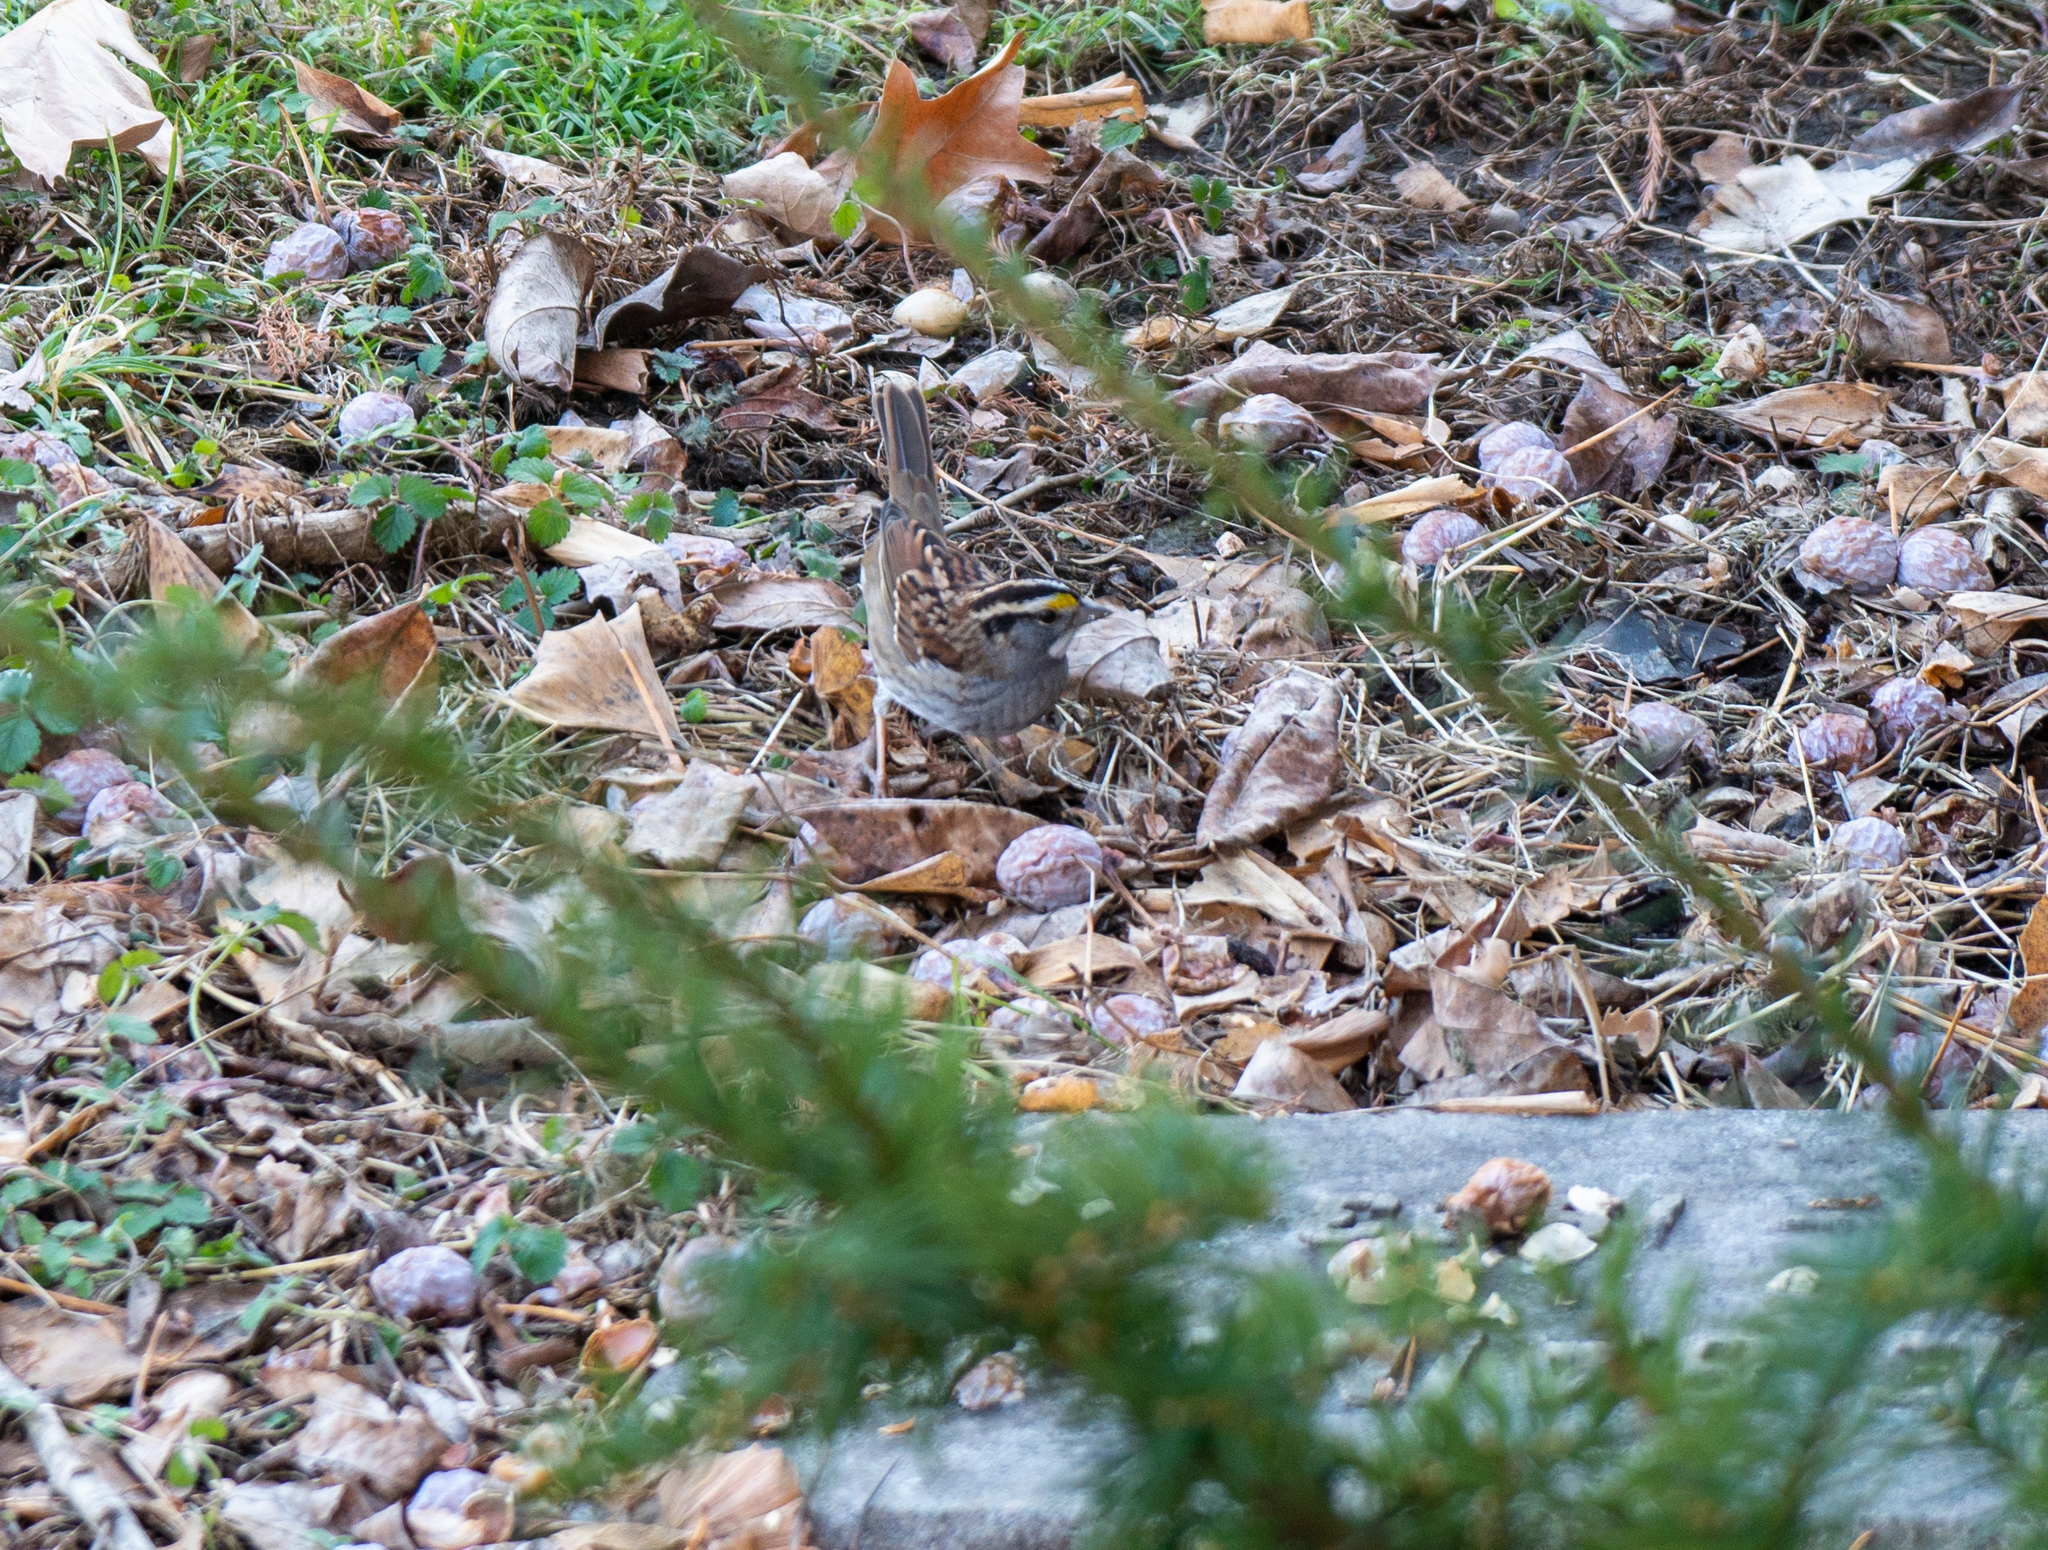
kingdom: Animalia
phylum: Chordata
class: Aves
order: Passeriformes
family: Passerellidae
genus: Zonotrichia
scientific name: Zonotrichia albicollis
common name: White-throated sparrow
